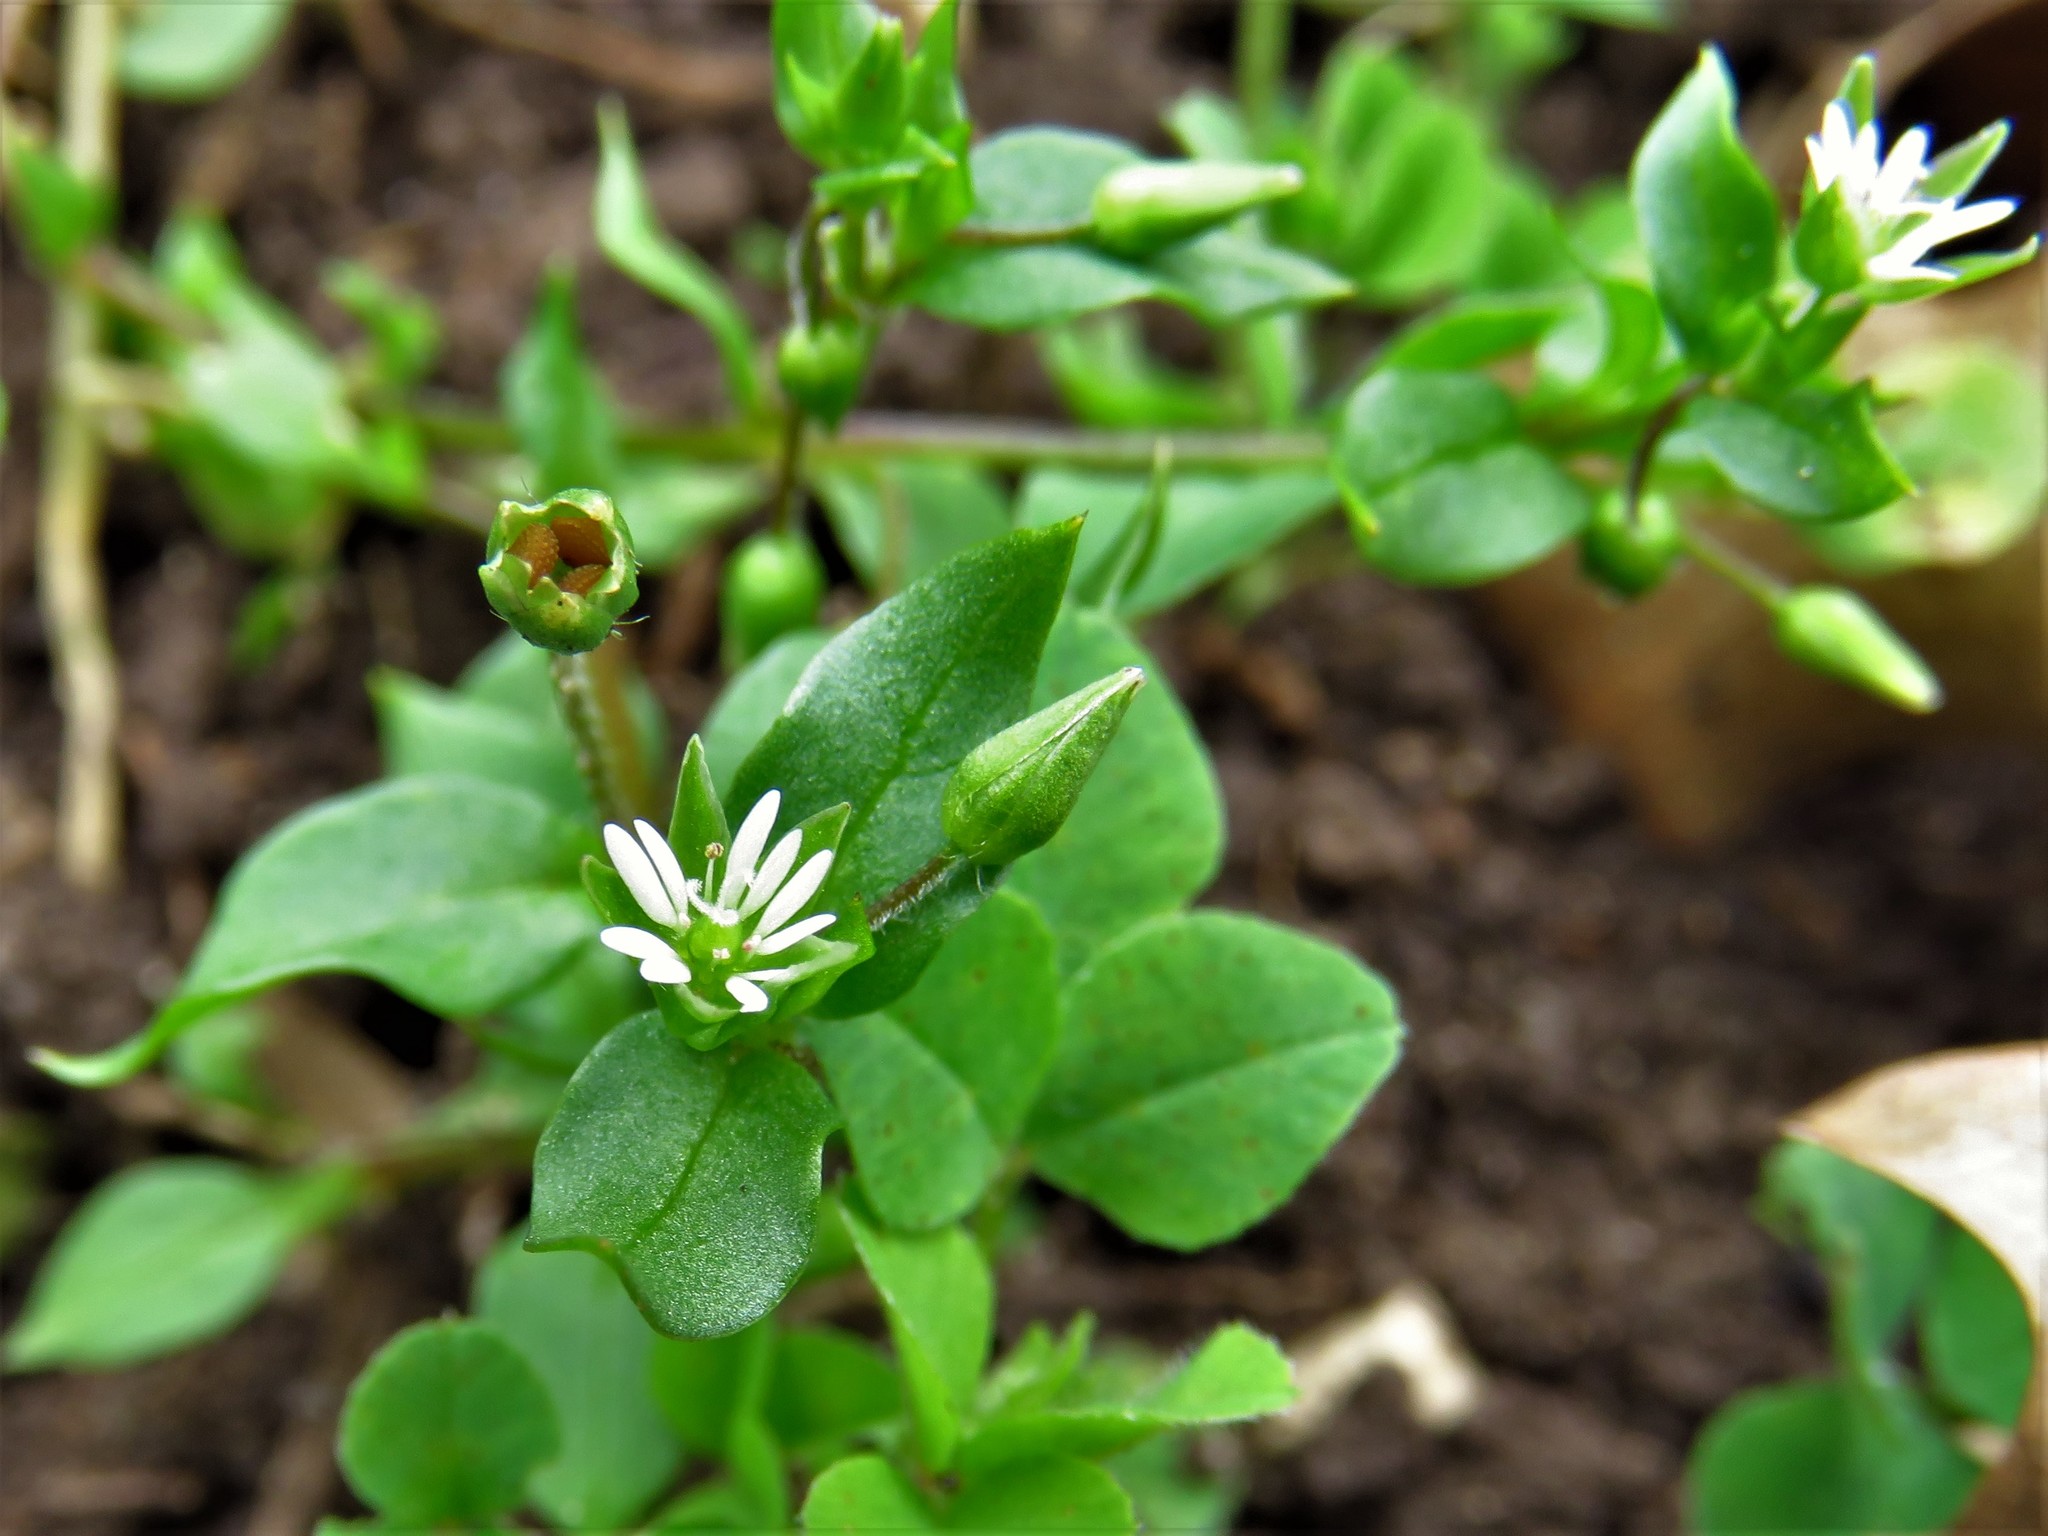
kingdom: Plantae
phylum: Tracheophyta
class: Magnoliopsida
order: Caryophyllales
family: Caryophyllaceae
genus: Stellaria
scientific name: Stellaria media
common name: Common chickweed
